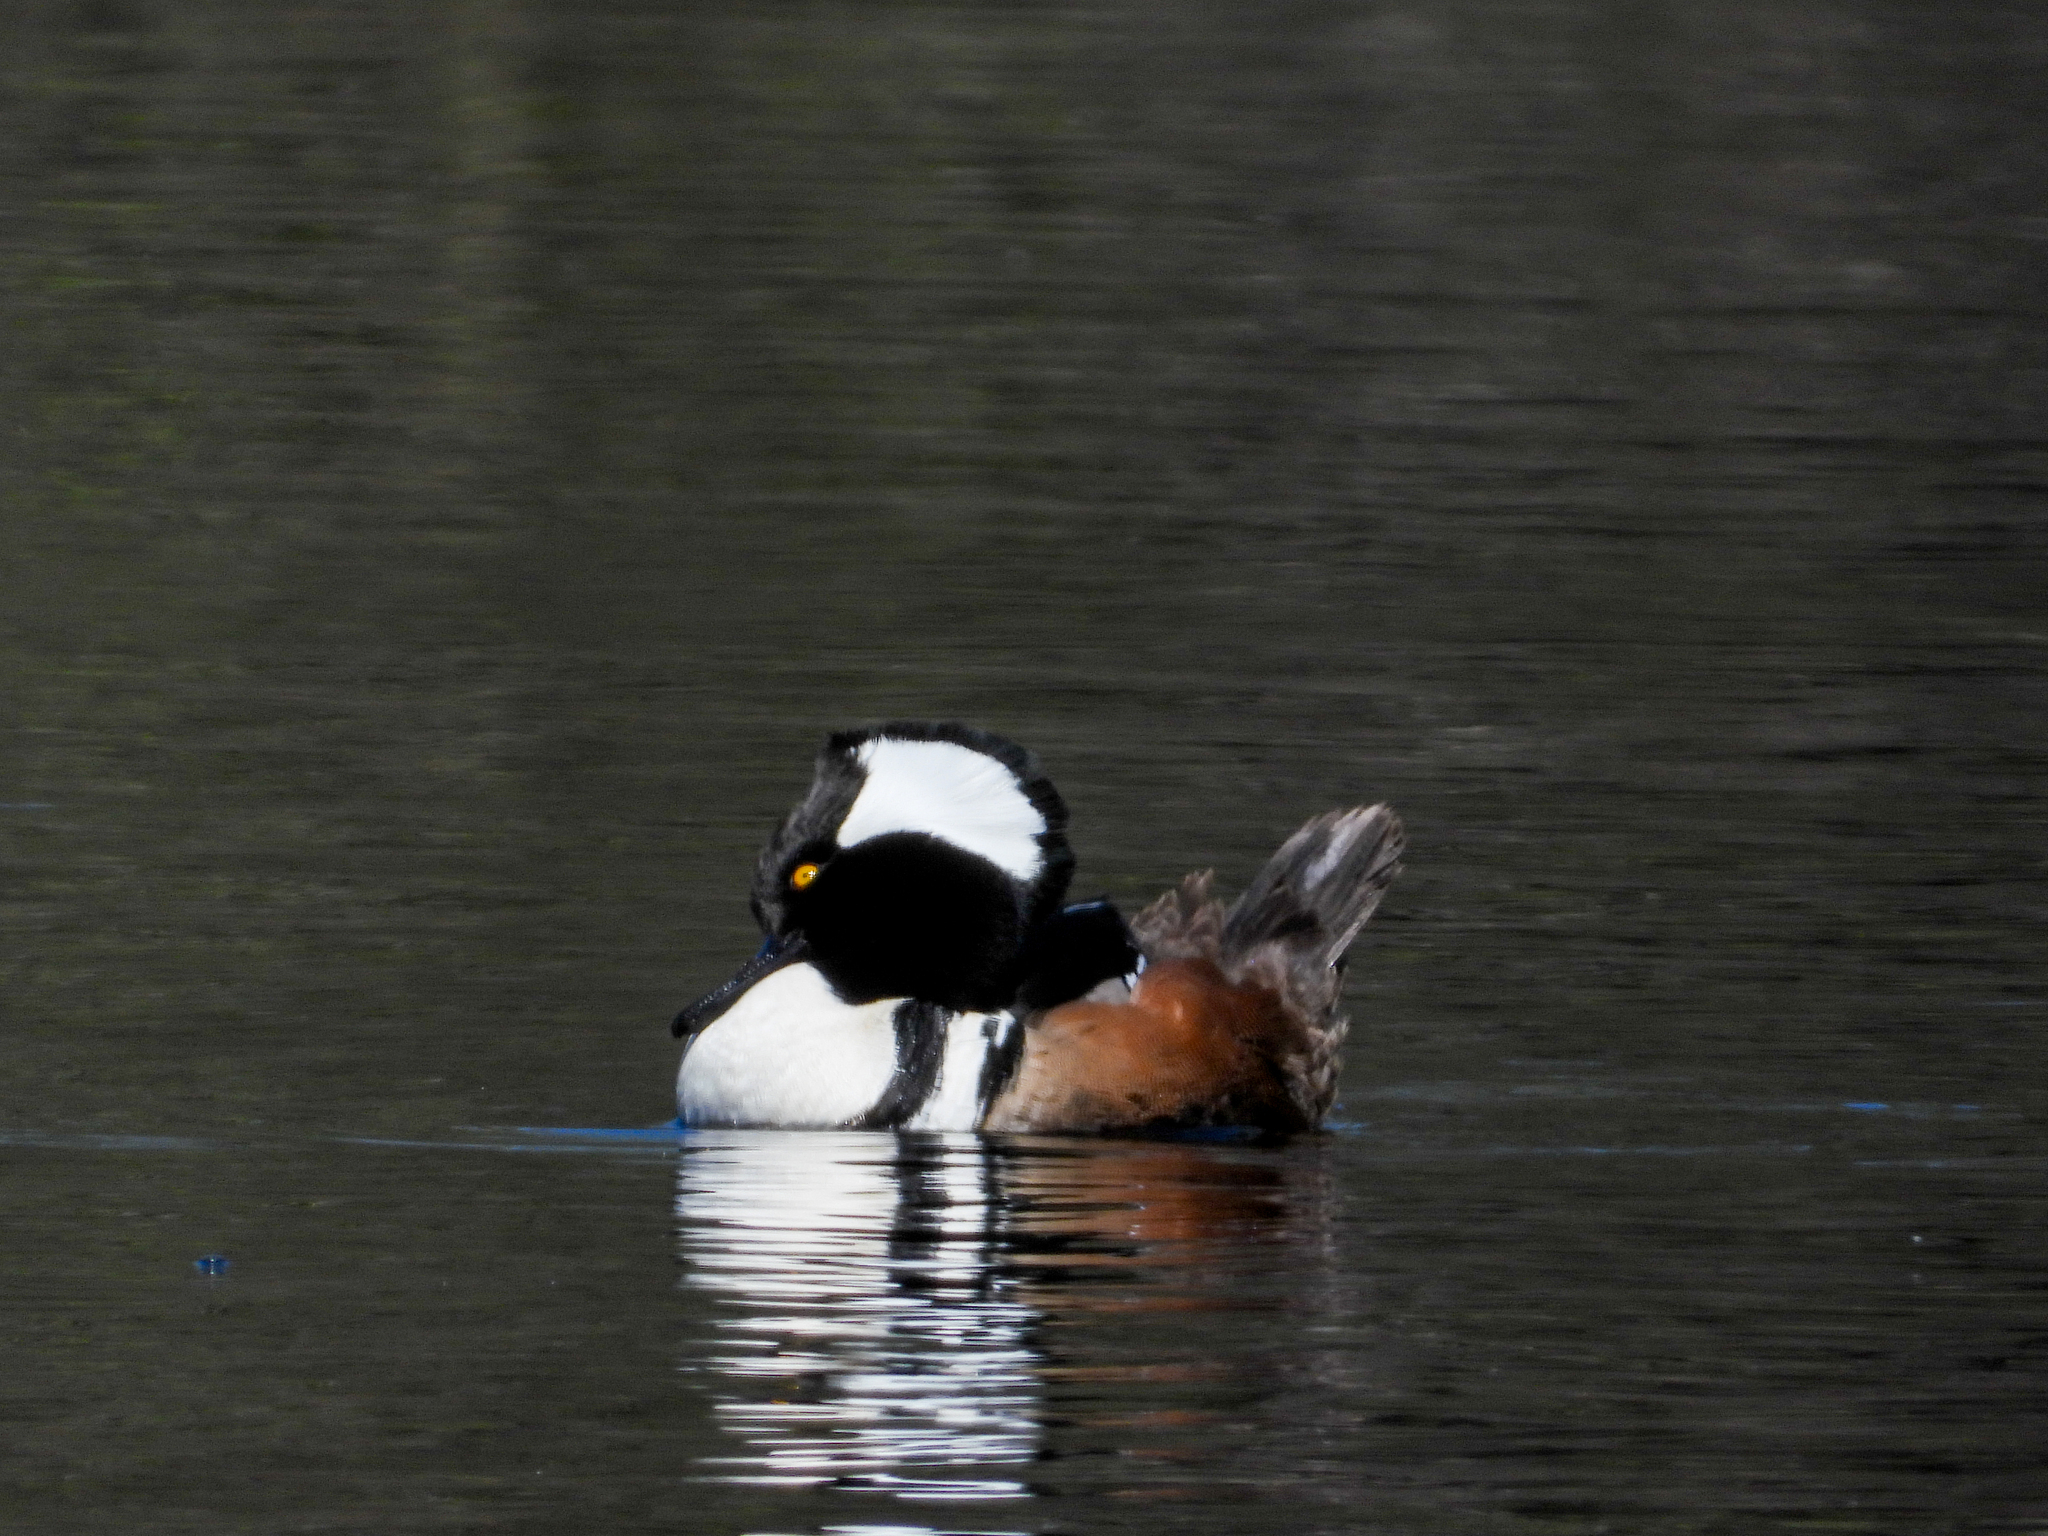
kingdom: Animalia
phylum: Chordata
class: Aves
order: Anseriformes
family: Anatidae
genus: Lophodytes
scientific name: Lophodytes cucullatus
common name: Hooded merganser
